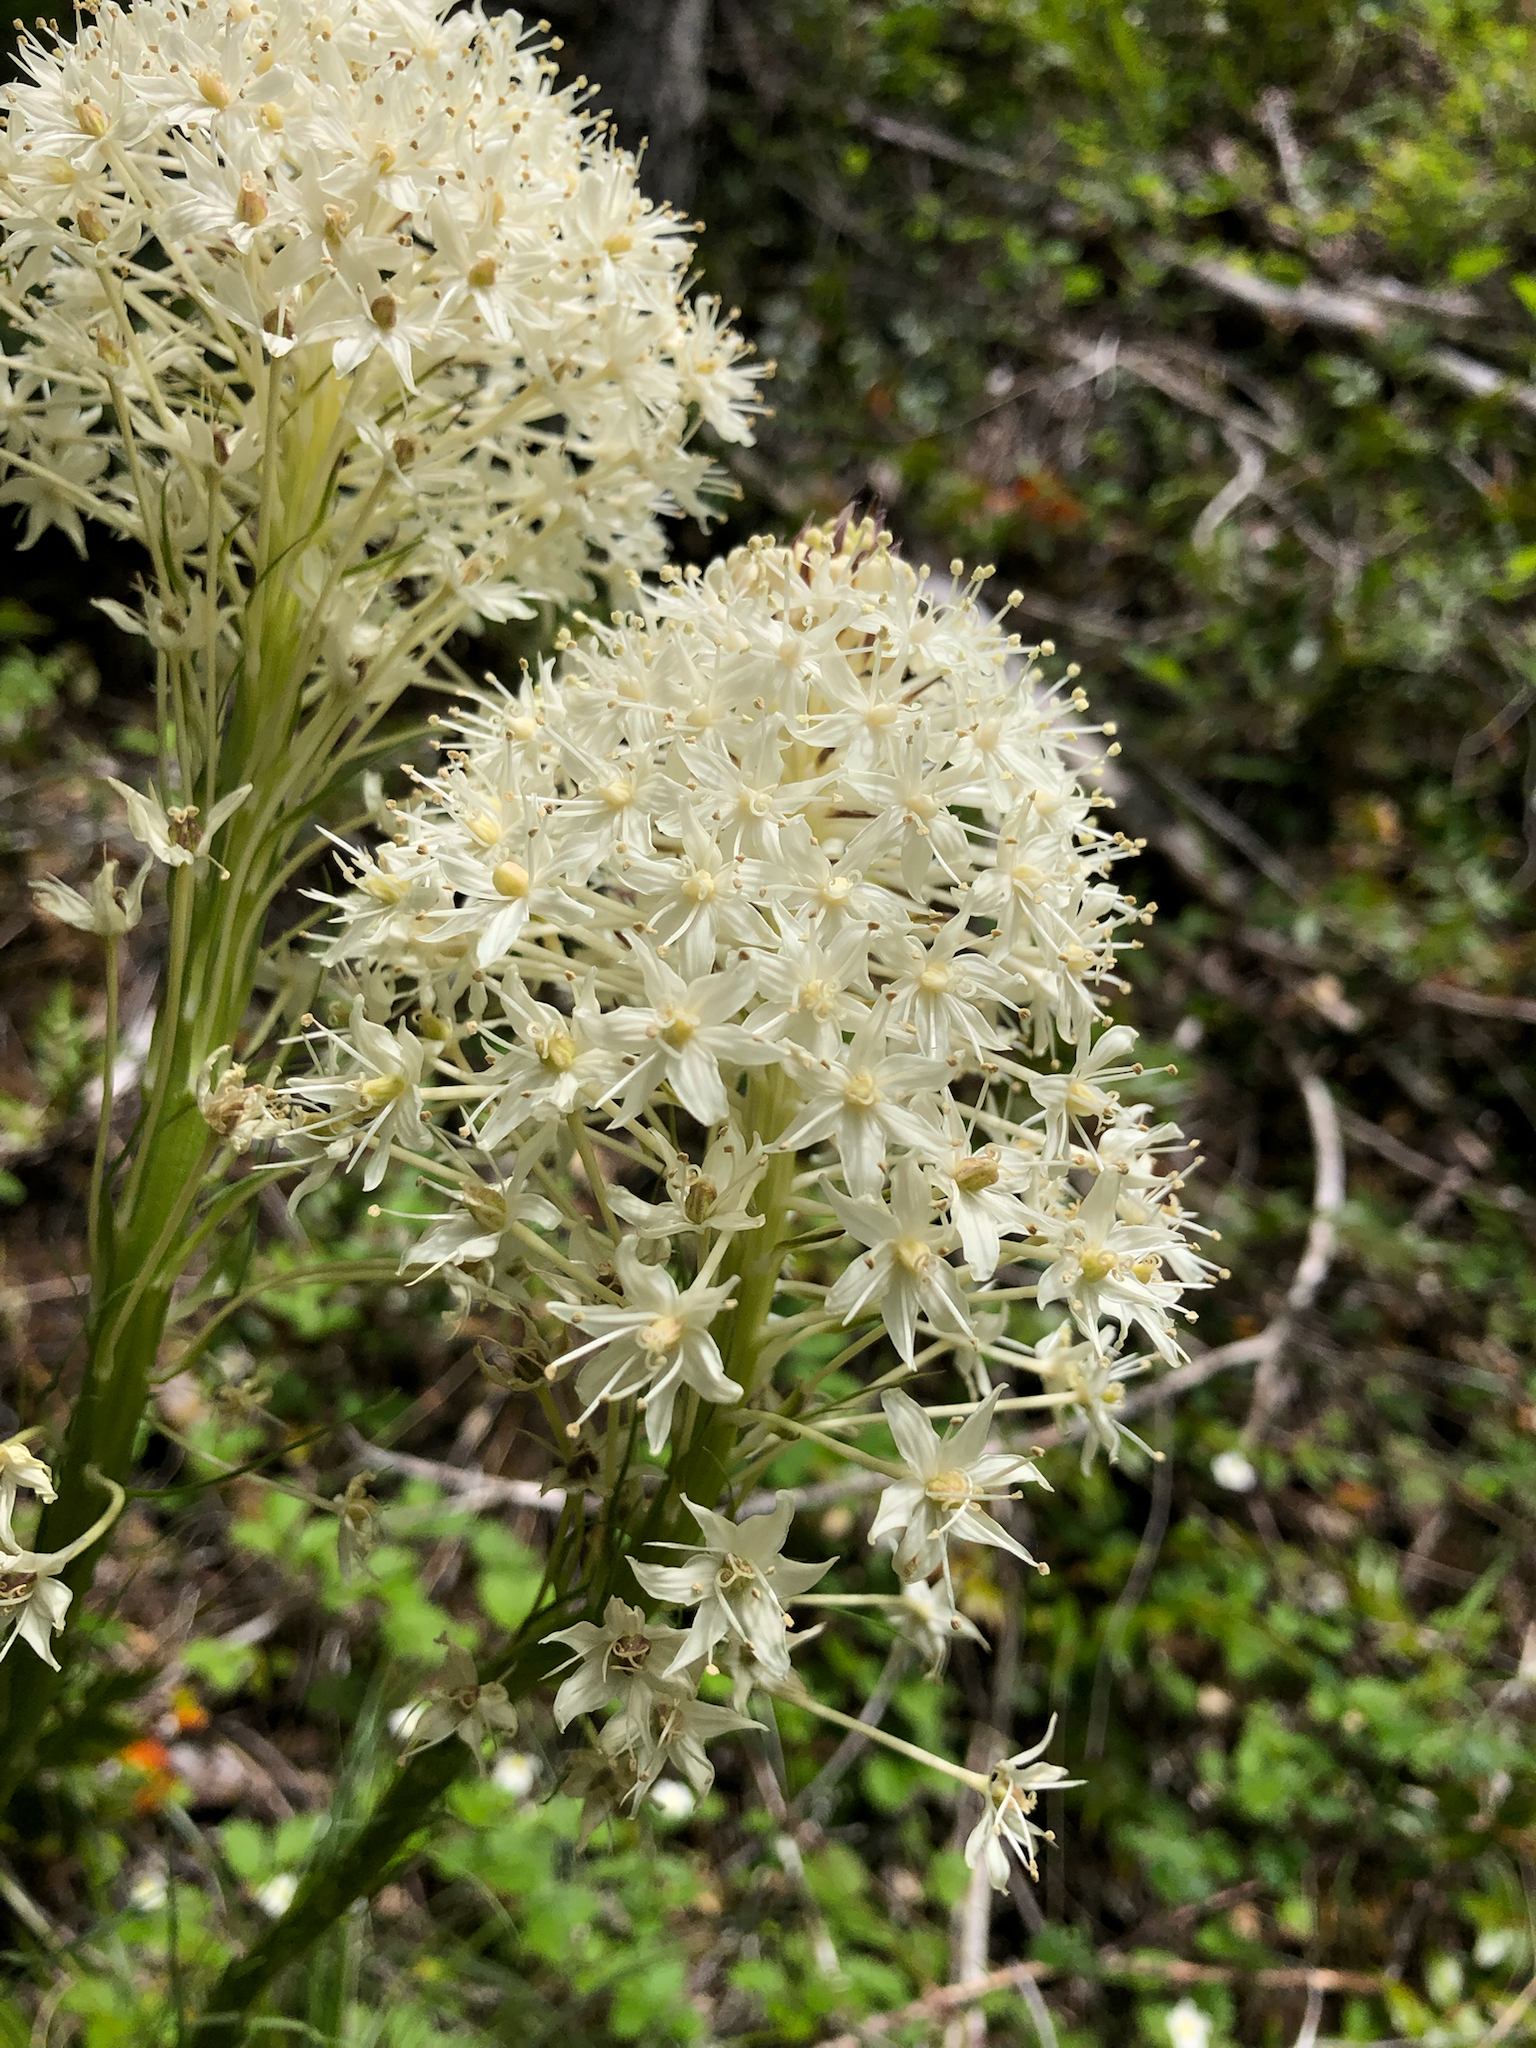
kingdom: Plantae
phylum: Tracheophyta
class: Liliopsida
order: Liliales
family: Melanthiaceae
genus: Xerophyllum
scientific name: Xerophyllum tenax
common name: Bear-grass
